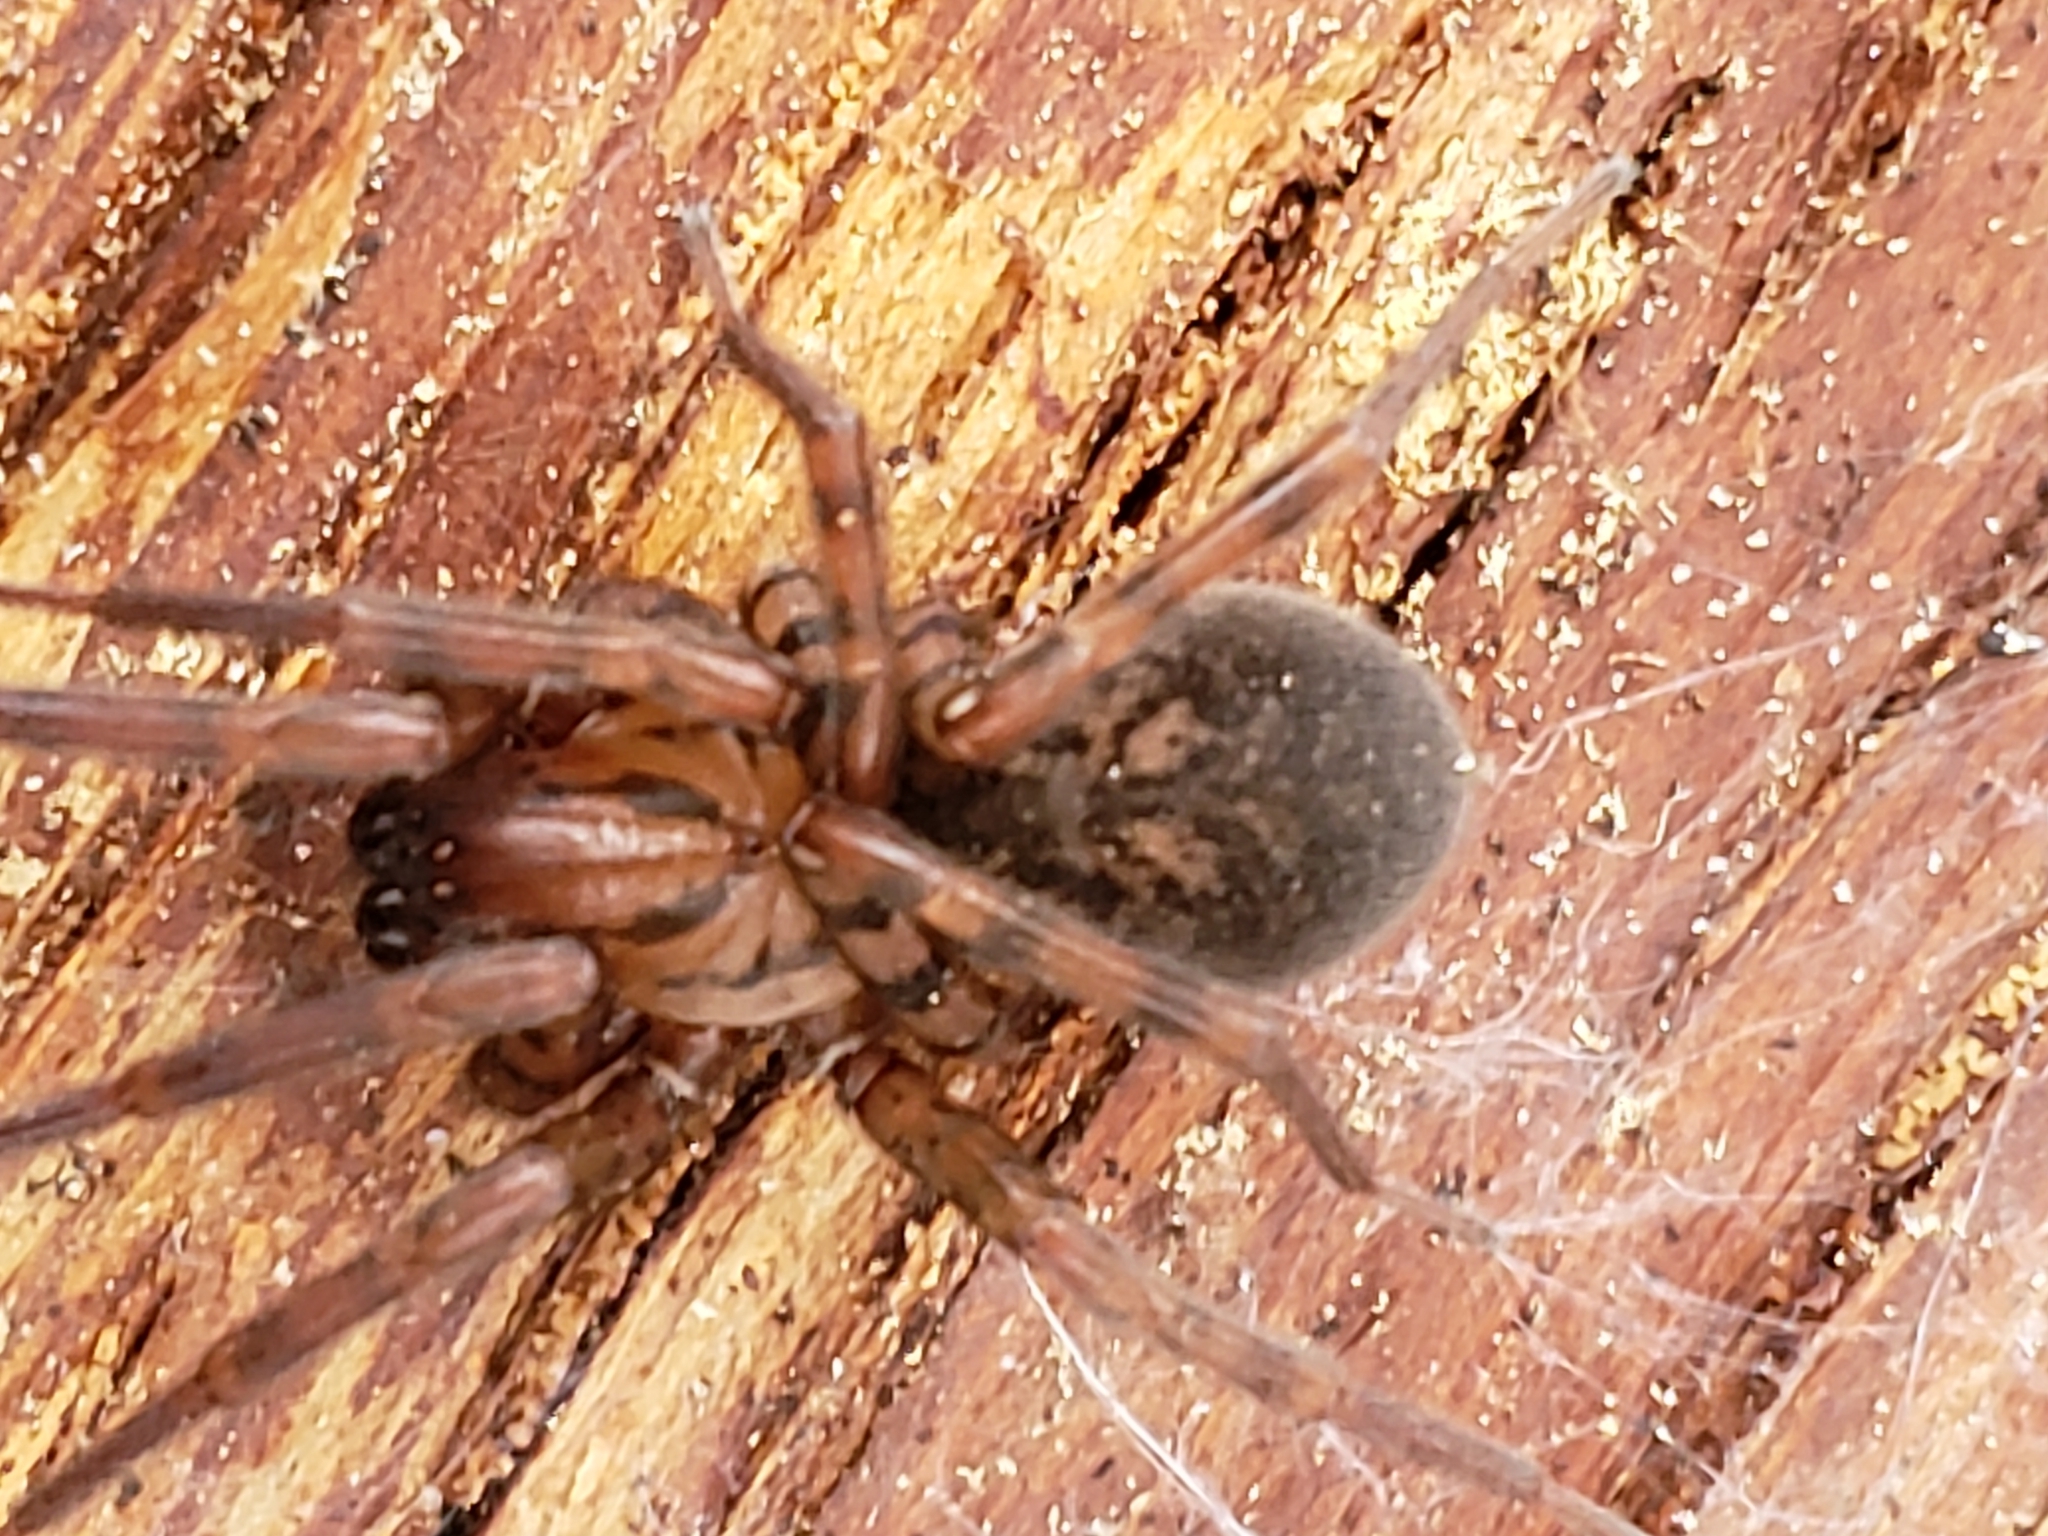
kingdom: Animalia
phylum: Arthropoda
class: Arachnida
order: Araneae
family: Agelenidae
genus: Coras
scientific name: Coras
